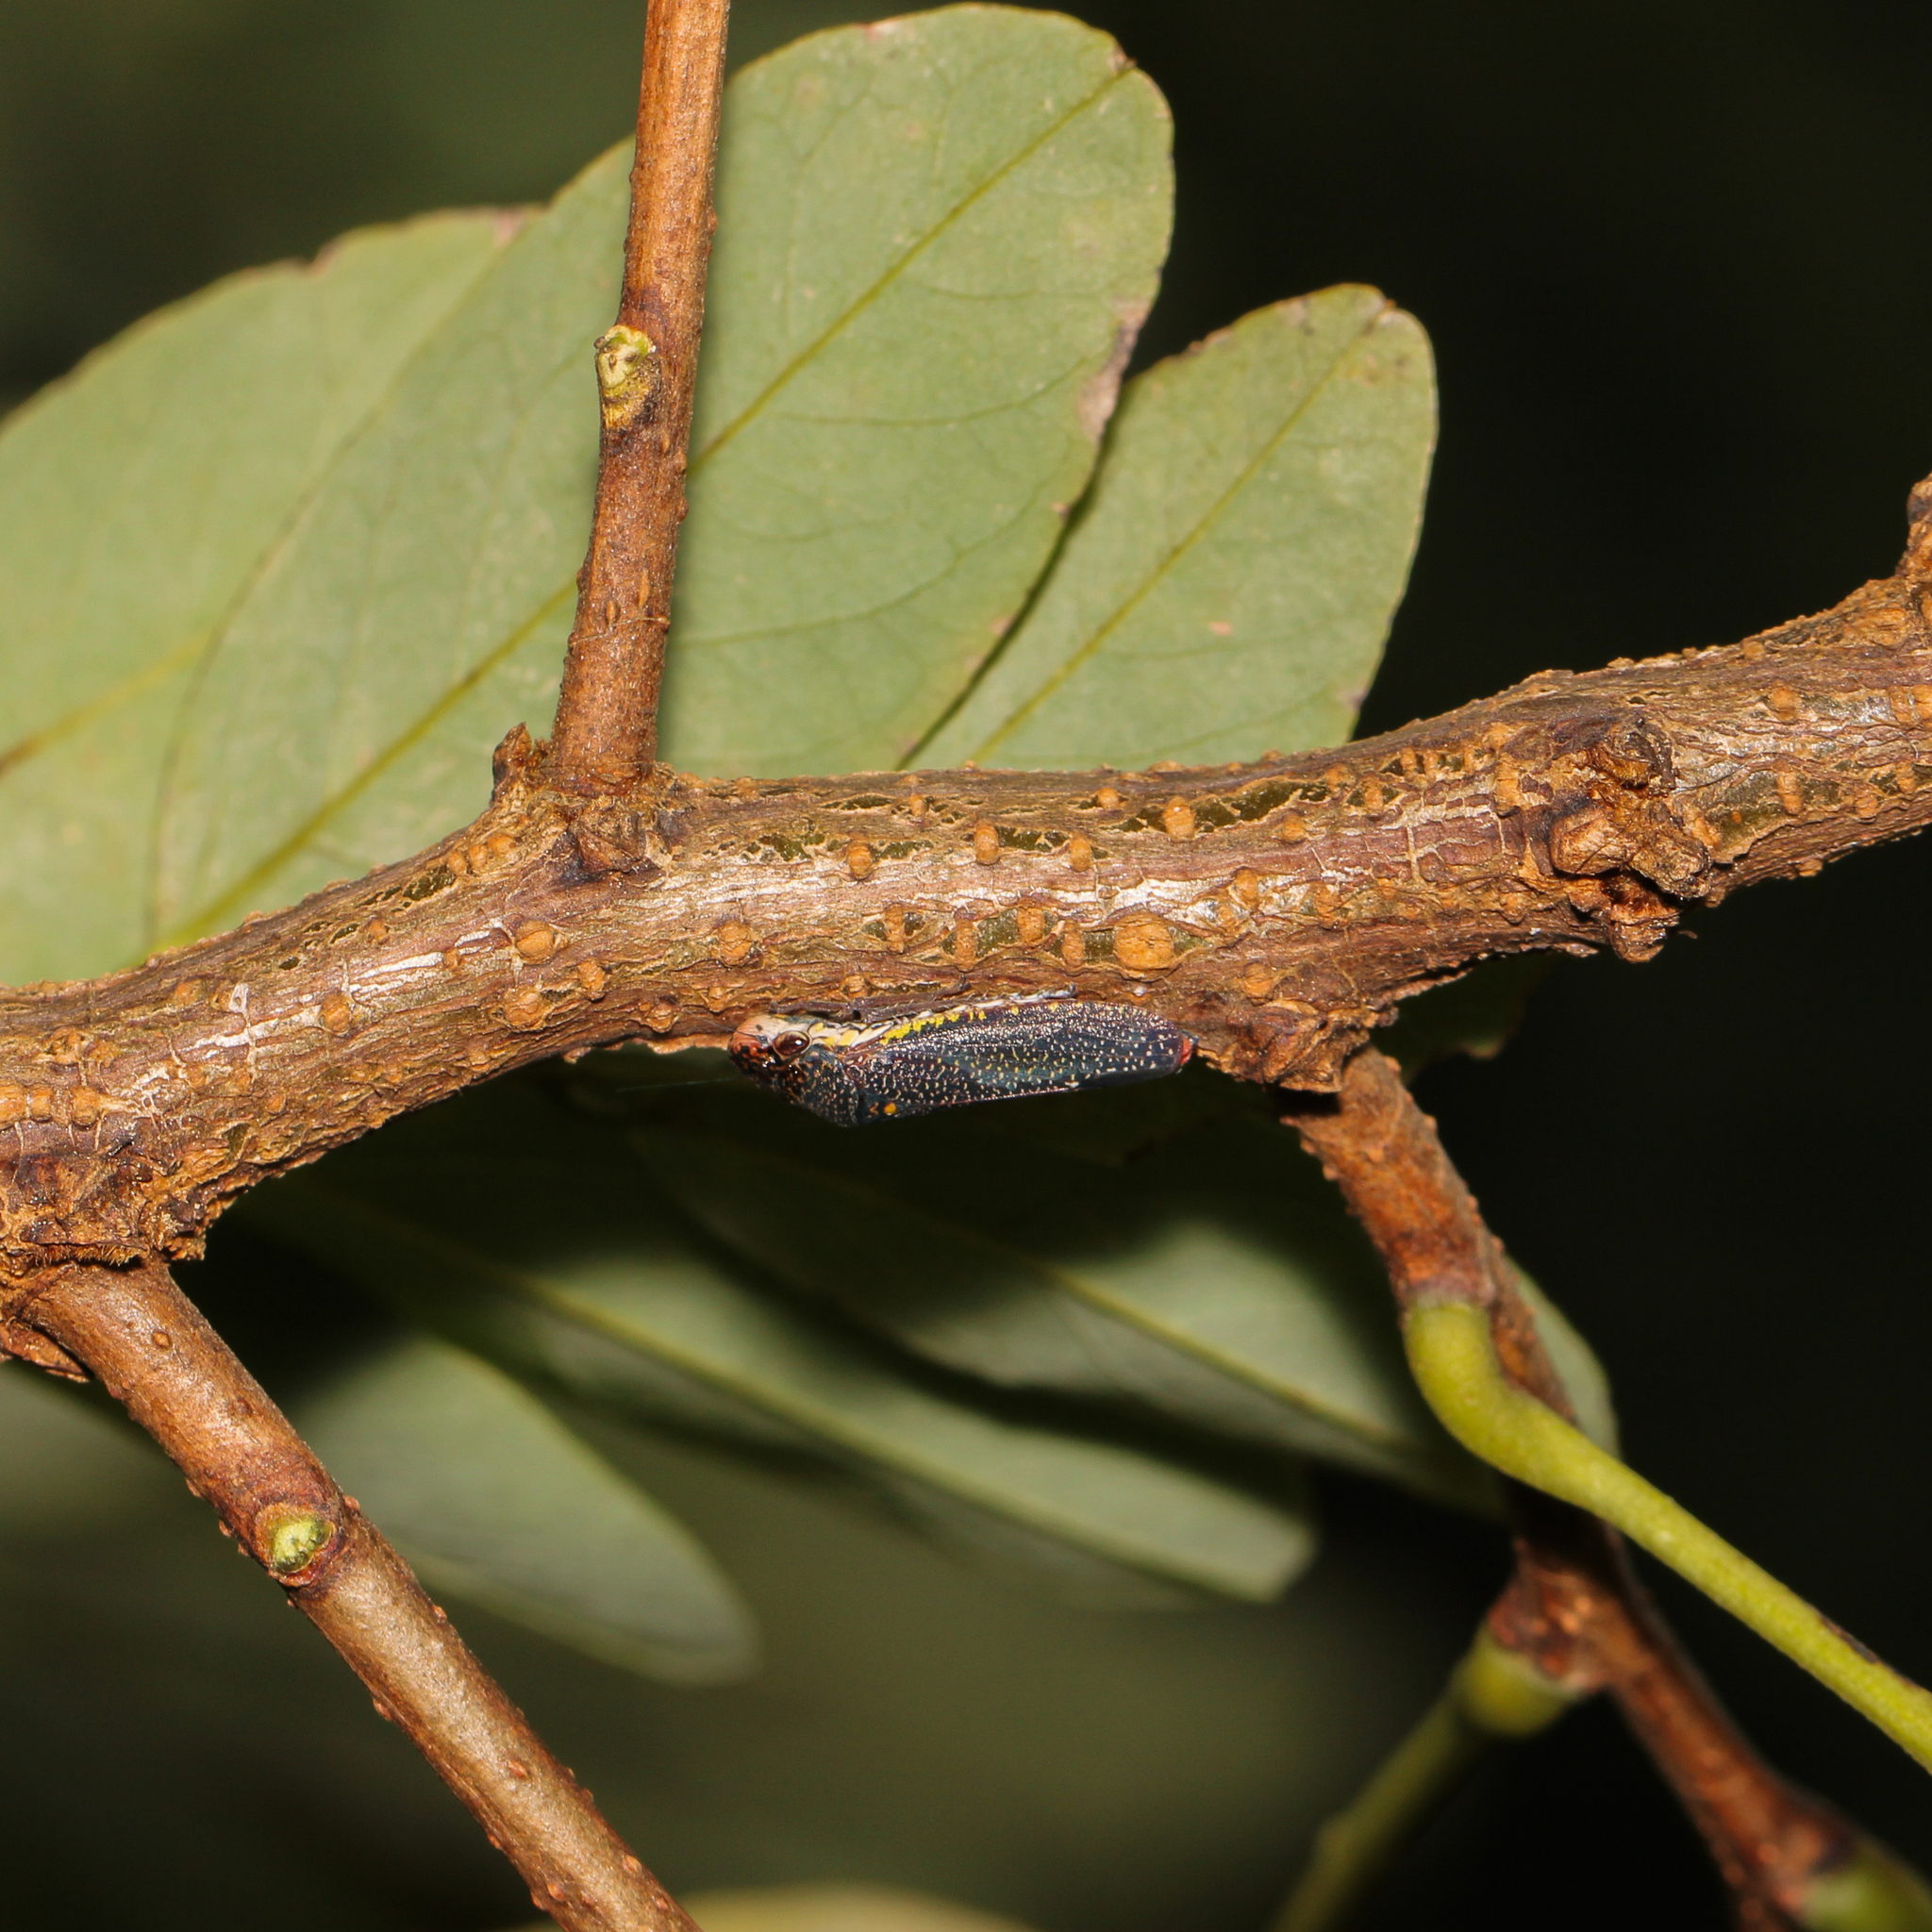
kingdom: Animalia
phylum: Arthropoda
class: Insecta
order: Hemiptera
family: Cicadellidae
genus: Paraulacizes
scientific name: Paraulacizes irrorata
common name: Speckled sharpshooter
